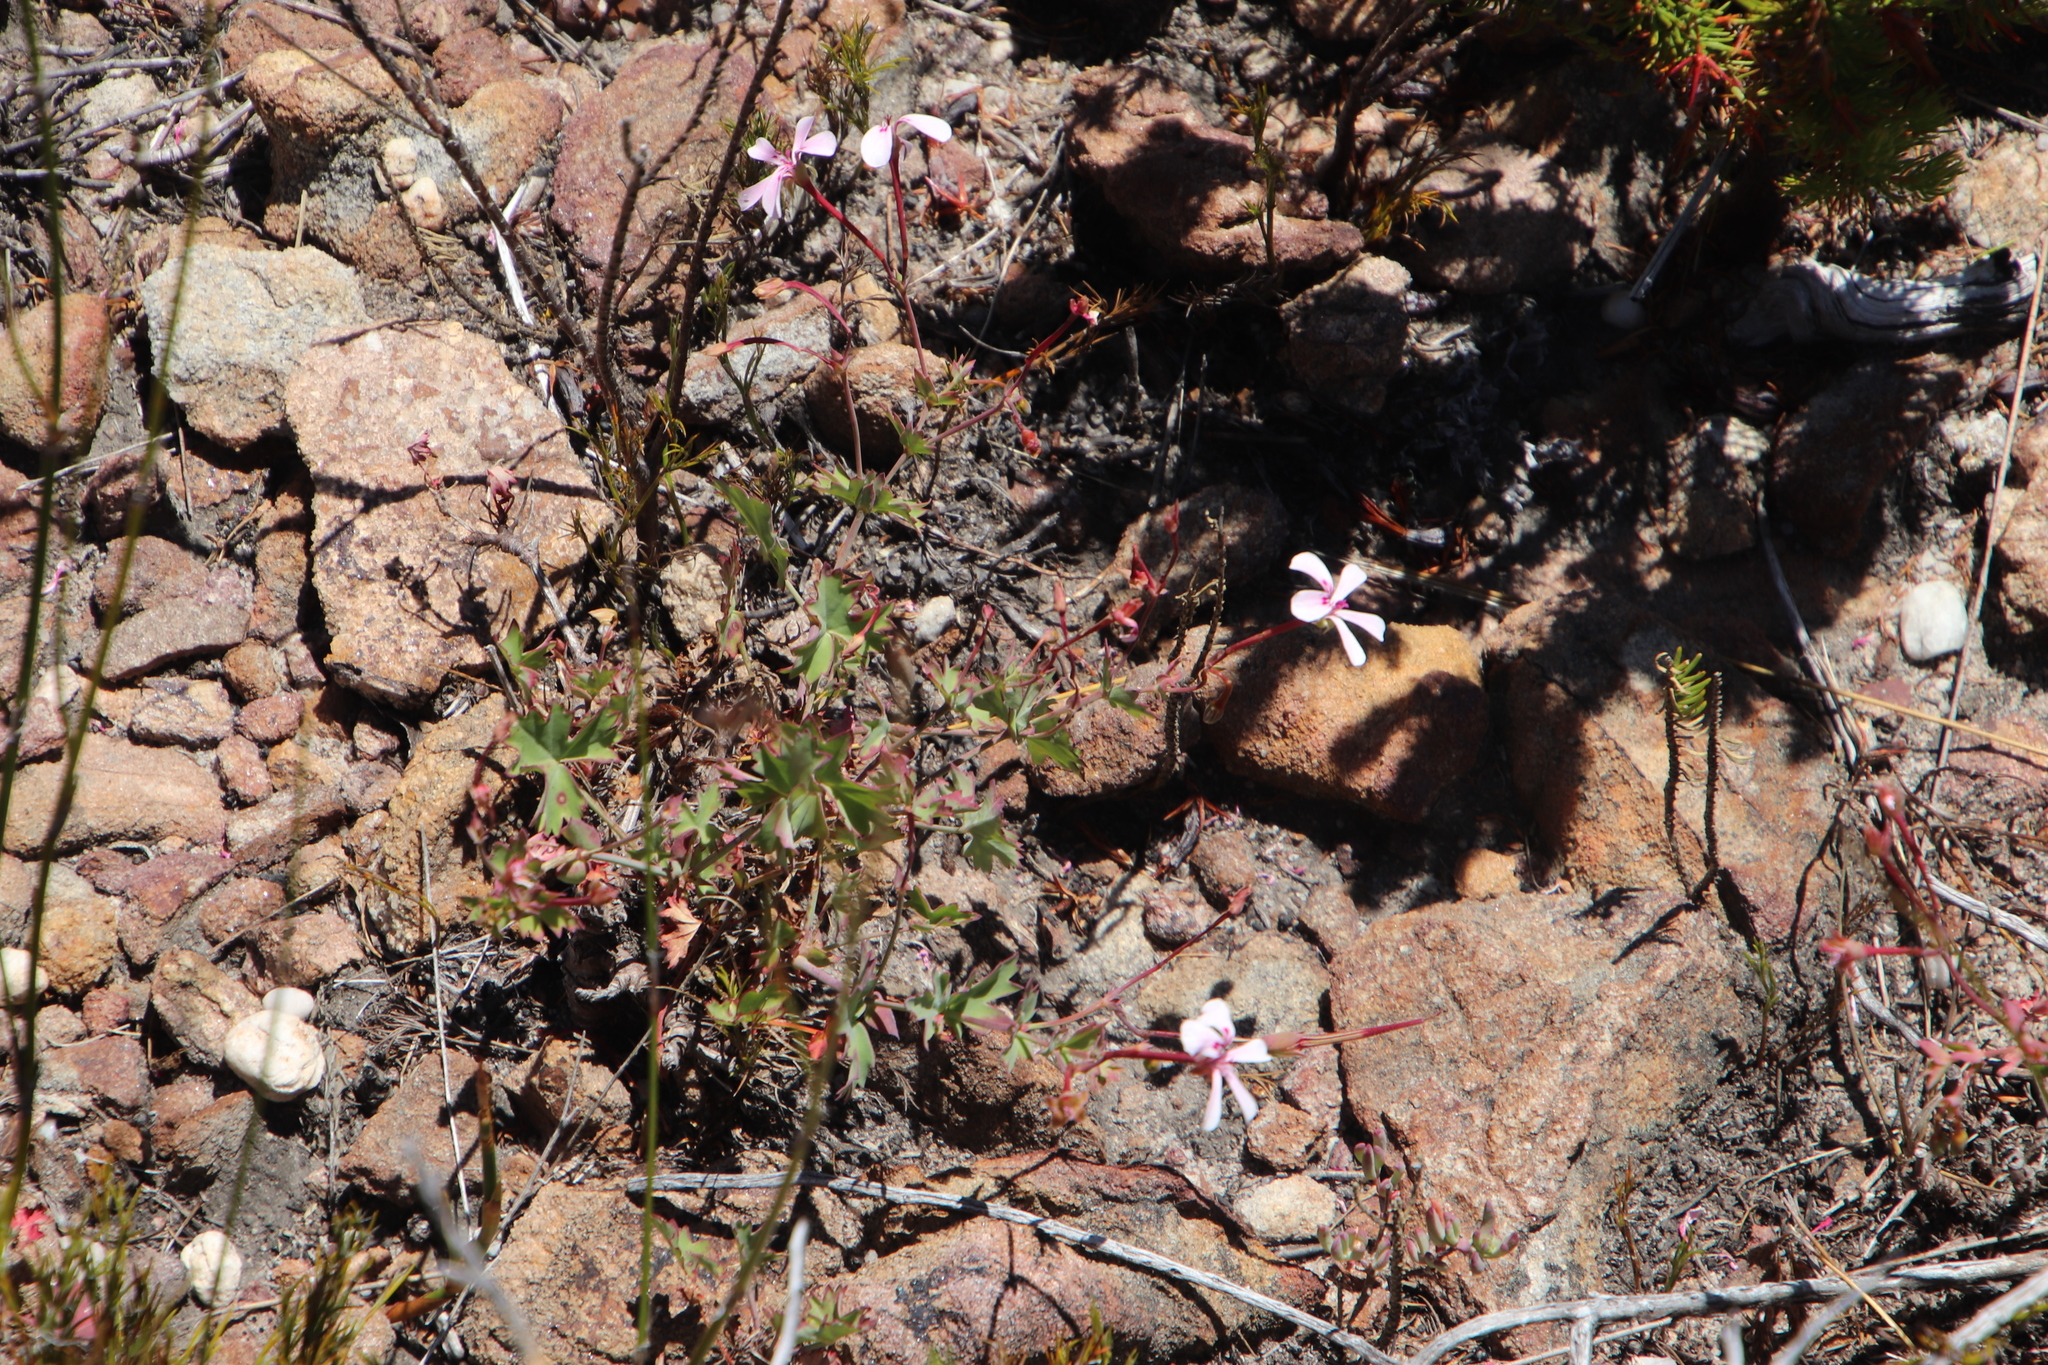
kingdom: Plantae
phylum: Tracheophyta
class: Magnoliopsida
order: Geraniales
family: Geraniaceae
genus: Pelargonium
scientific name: Pelargonium patulum
